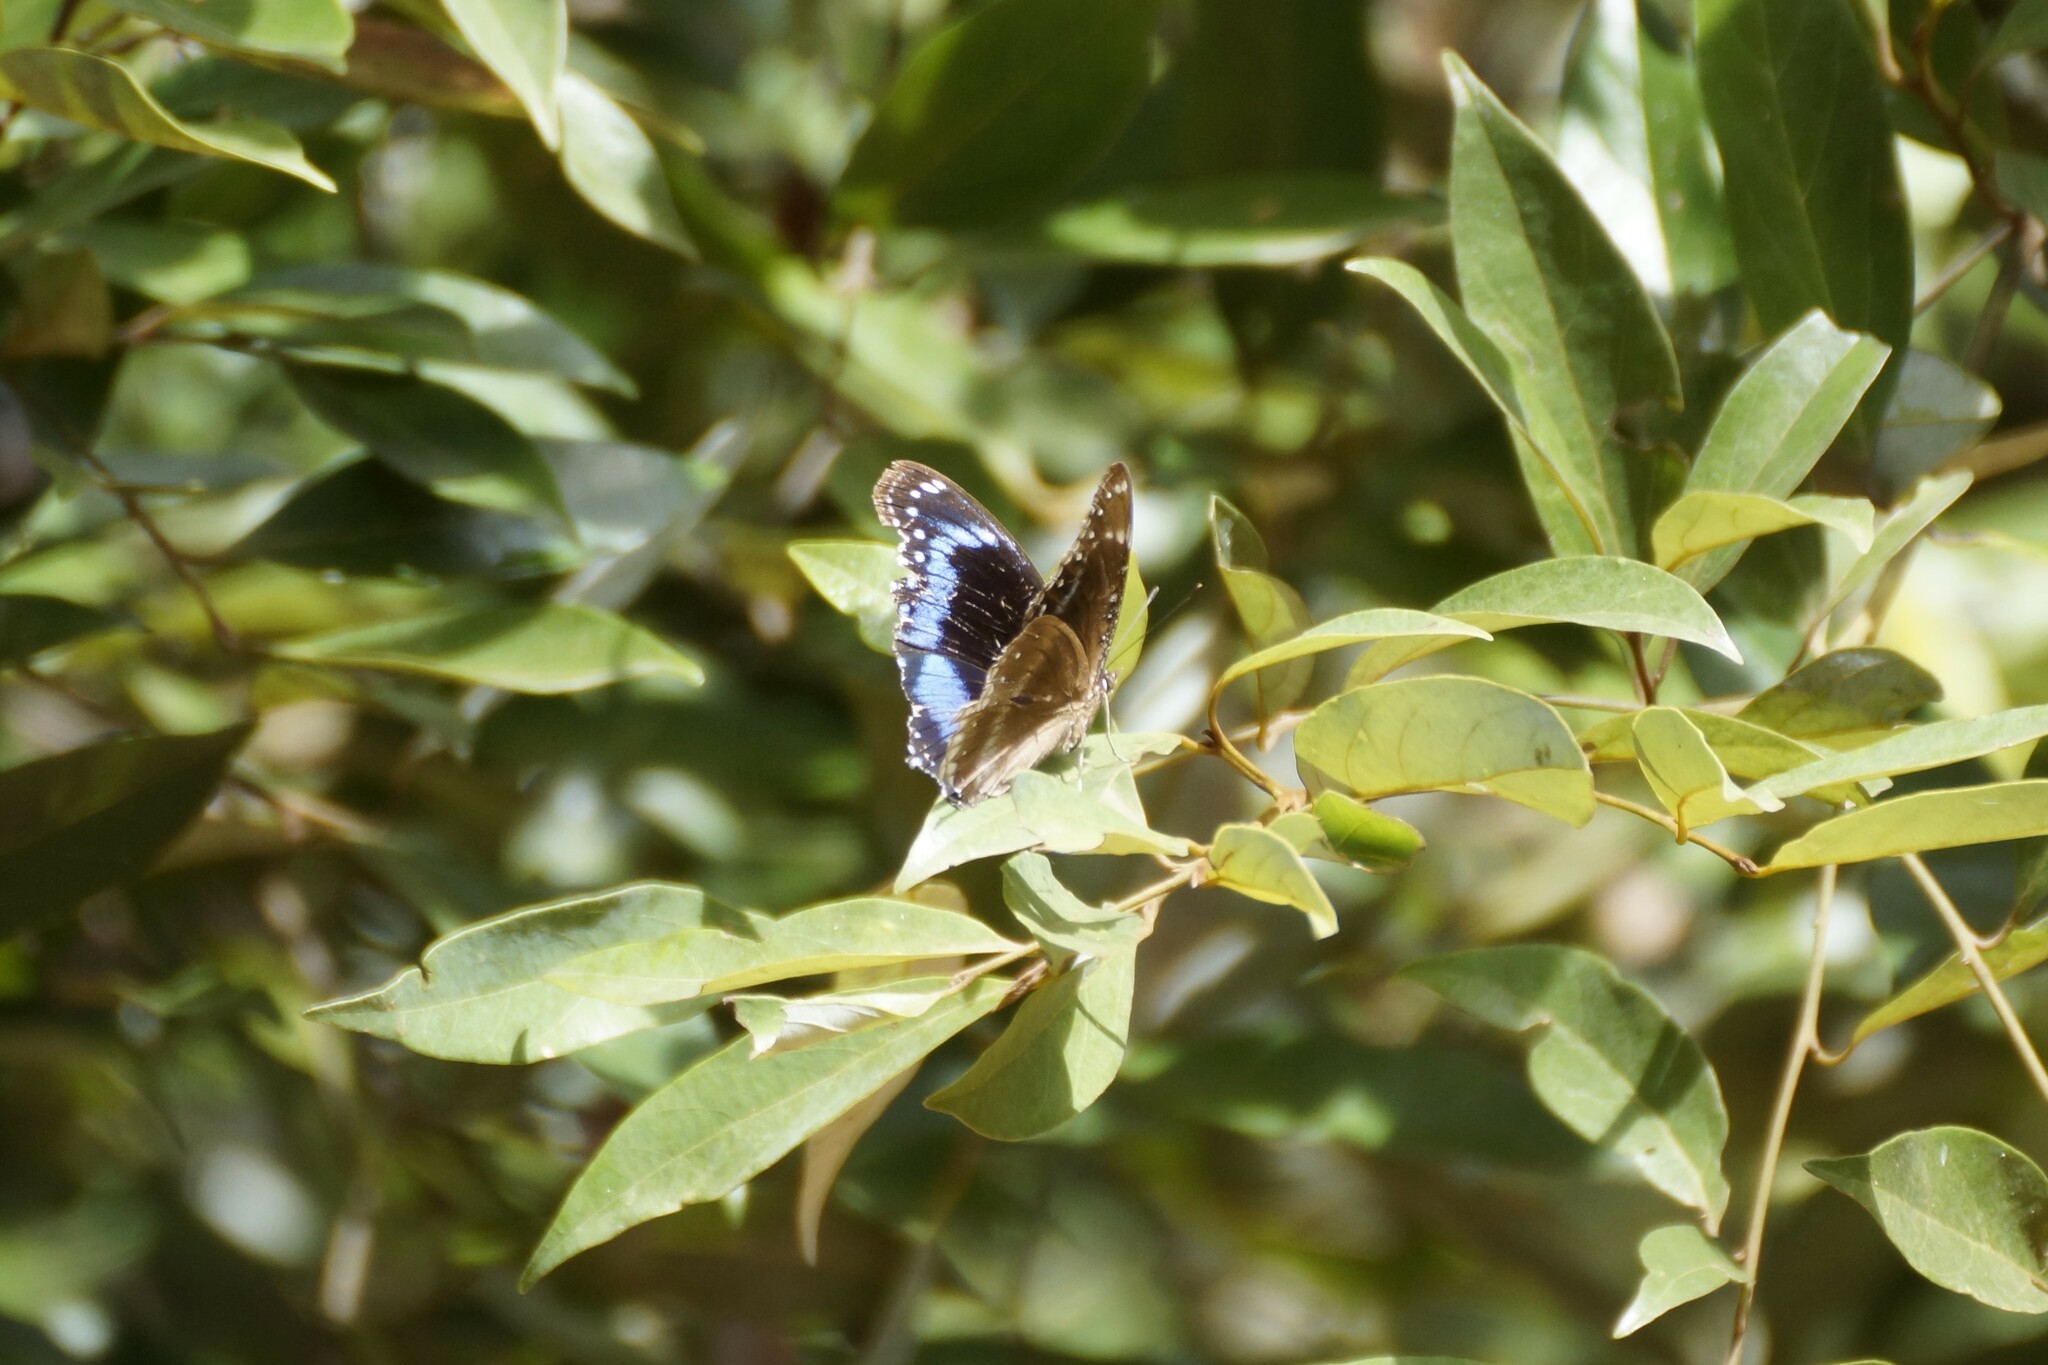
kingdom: Animalia
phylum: Arthropoda
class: Insecta
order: Lepidoptera
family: Nymphalidae
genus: Hypolimnas
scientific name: Hypolimnas alimena
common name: Blue-banded eggfly
